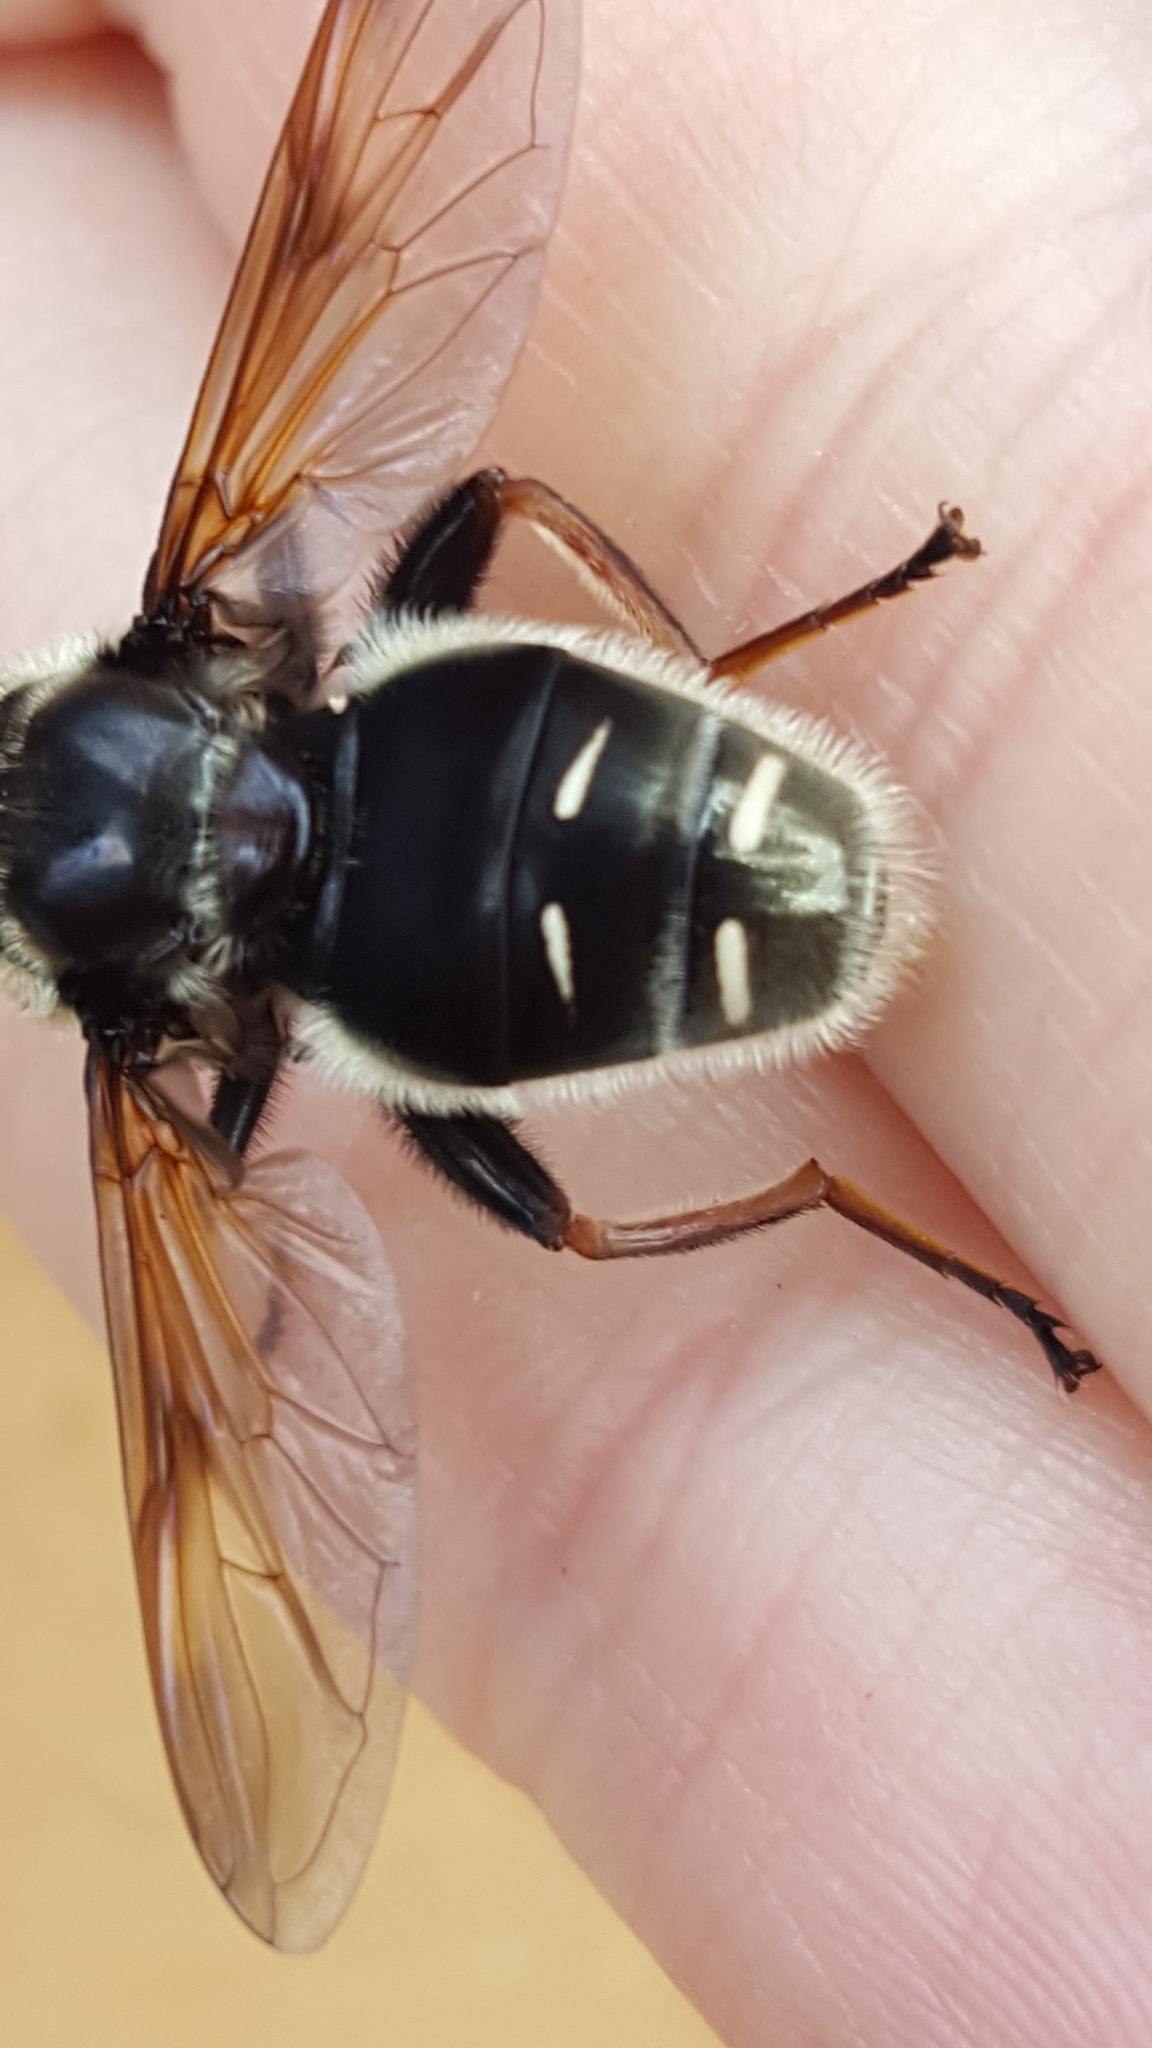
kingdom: Animalia
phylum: Arthropoda
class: Insecta
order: Diptera
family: Syrphidae
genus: Sericomyia
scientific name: Sericomyia militaris
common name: Narrow-banded pond fly
